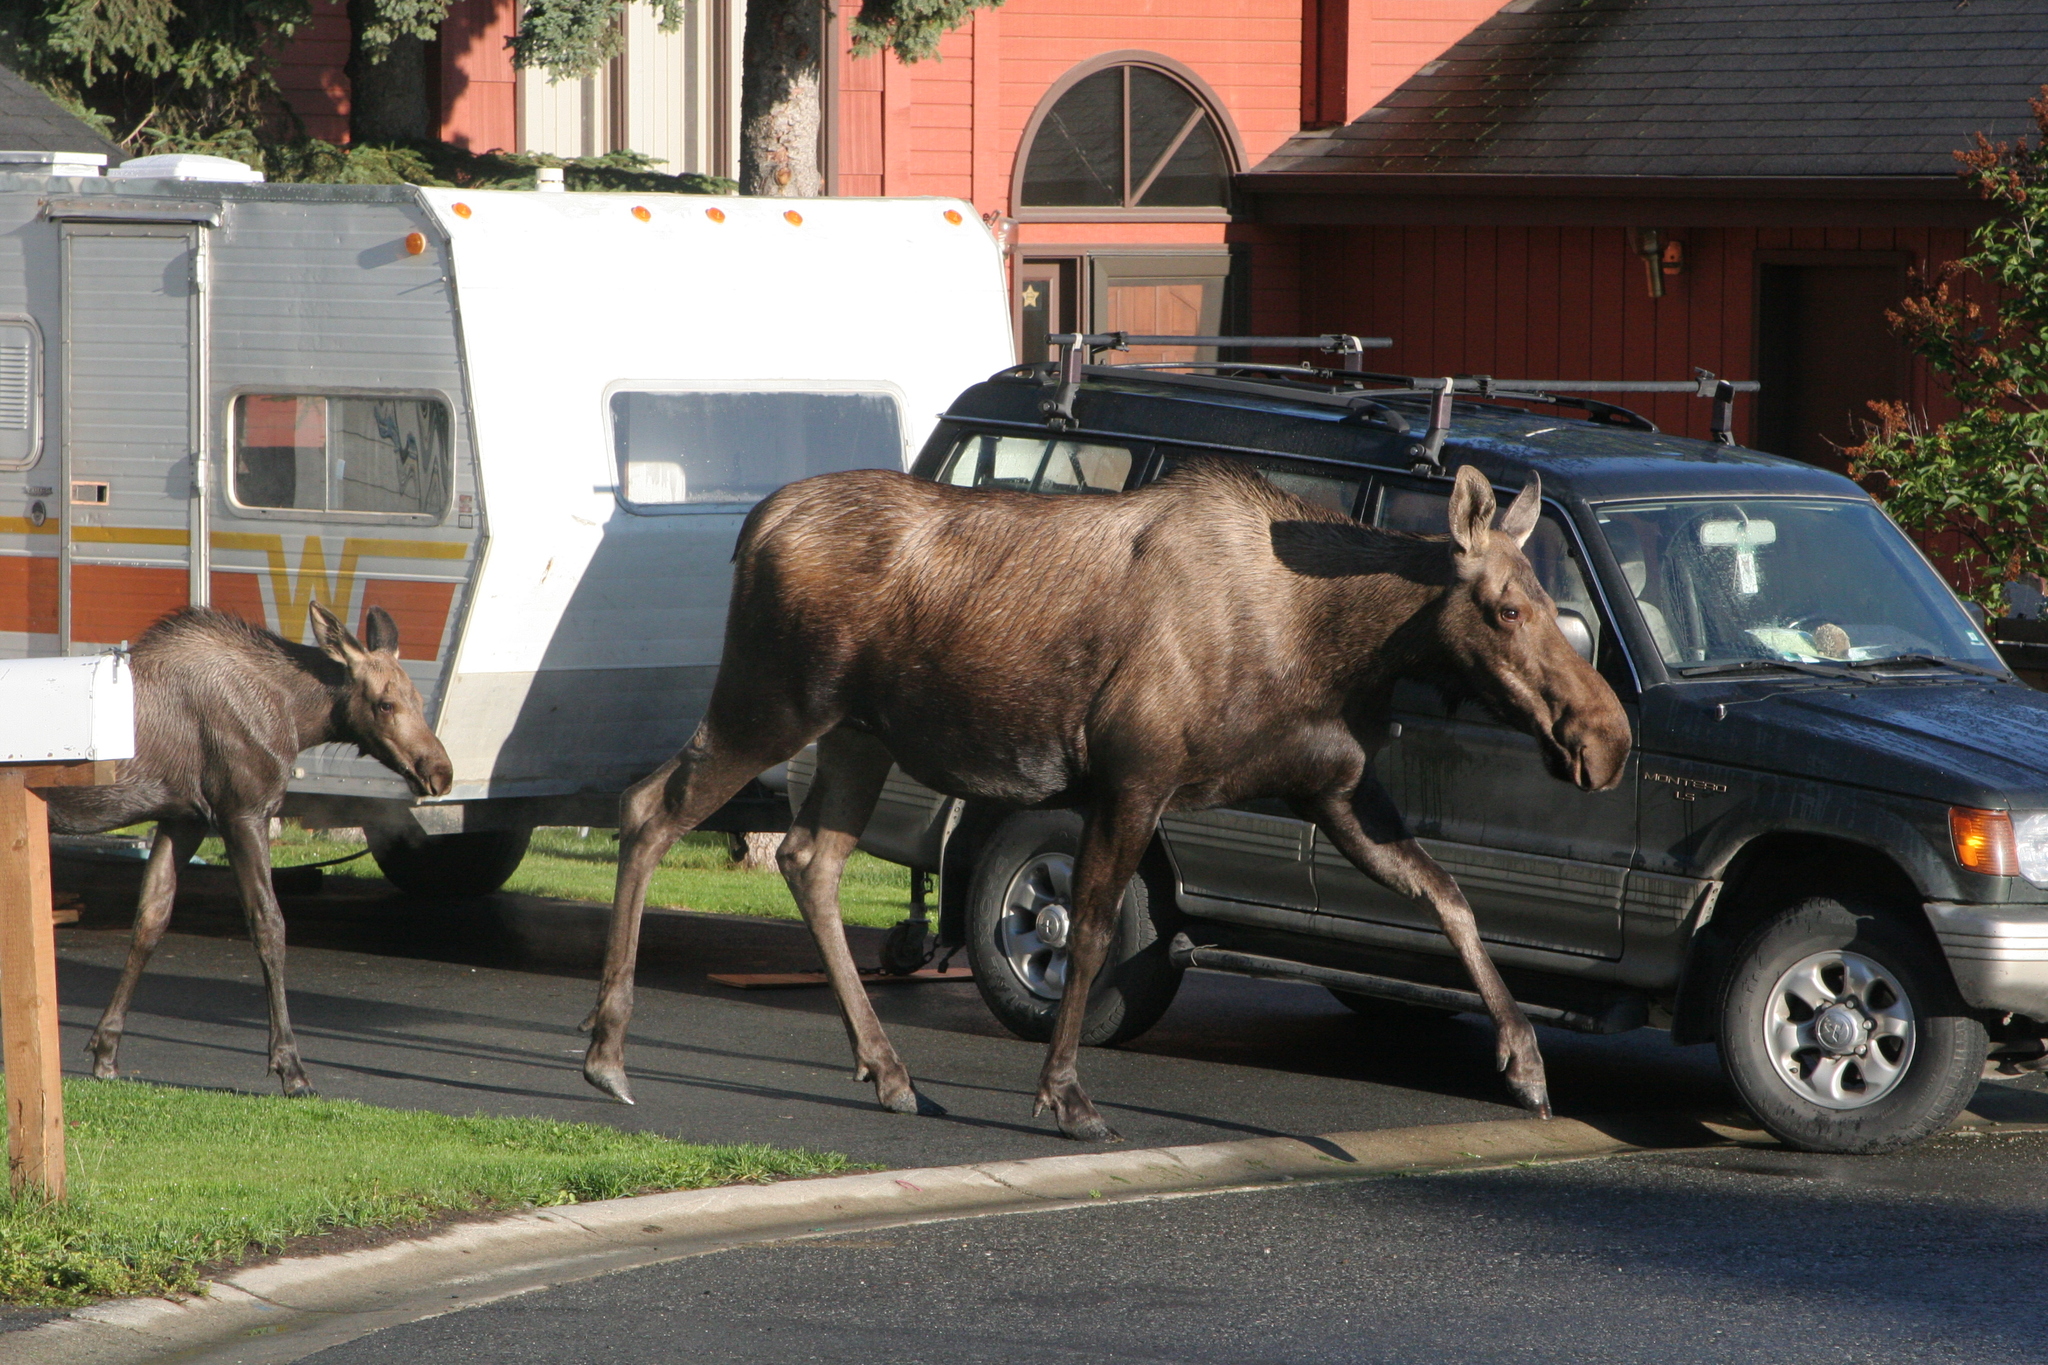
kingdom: Animalia
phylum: Chordata
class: Mammalia
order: Artiodactyla
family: Cervidae
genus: Alces
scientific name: Alces alces
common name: Moose
